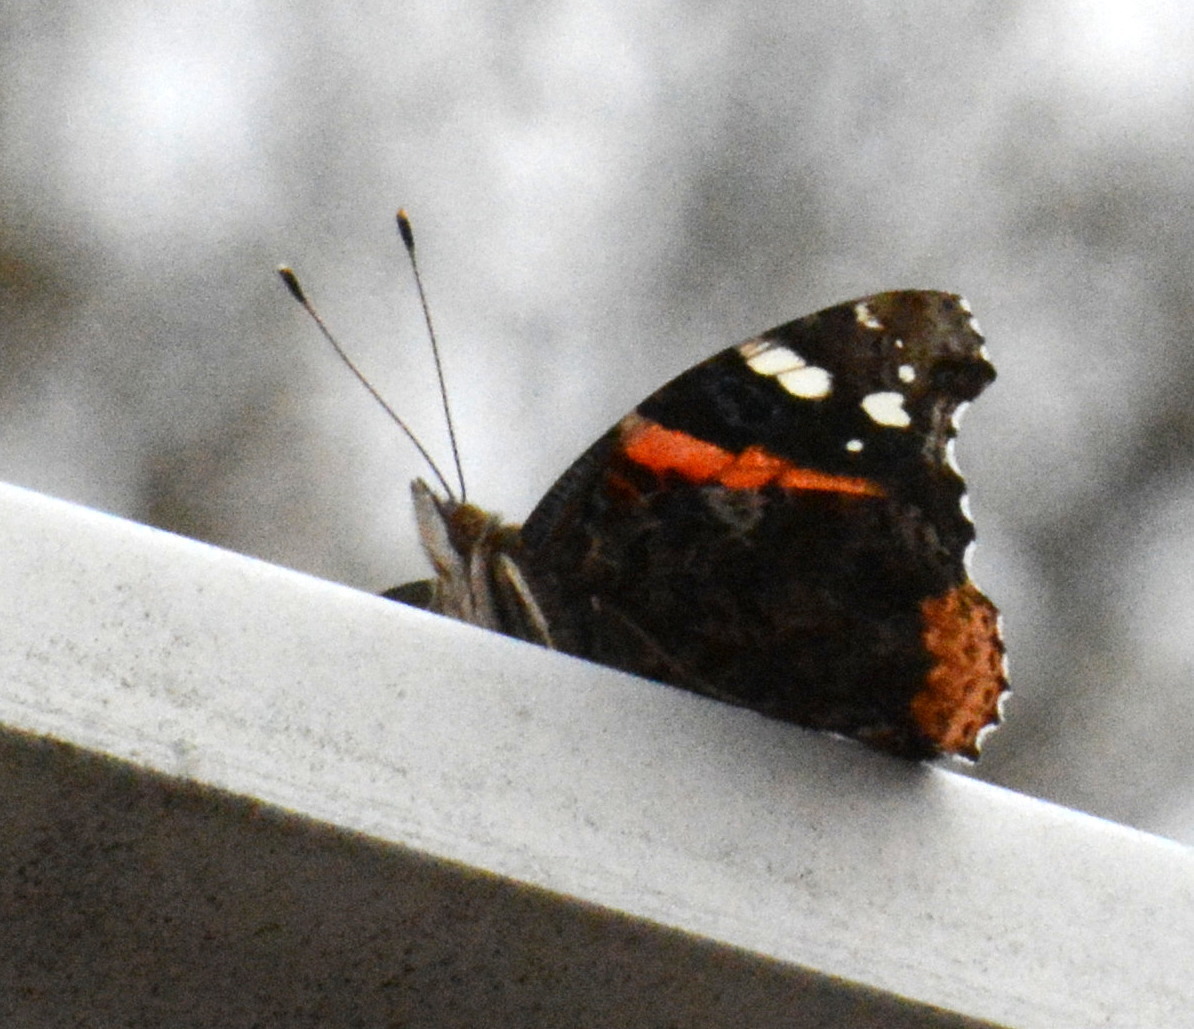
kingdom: Animalia
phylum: Arthropoda
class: Insecta
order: Lepidoptera
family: Nymphalidae
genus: Vanessa
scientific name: Vanessa atalanta
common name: Red admiral
